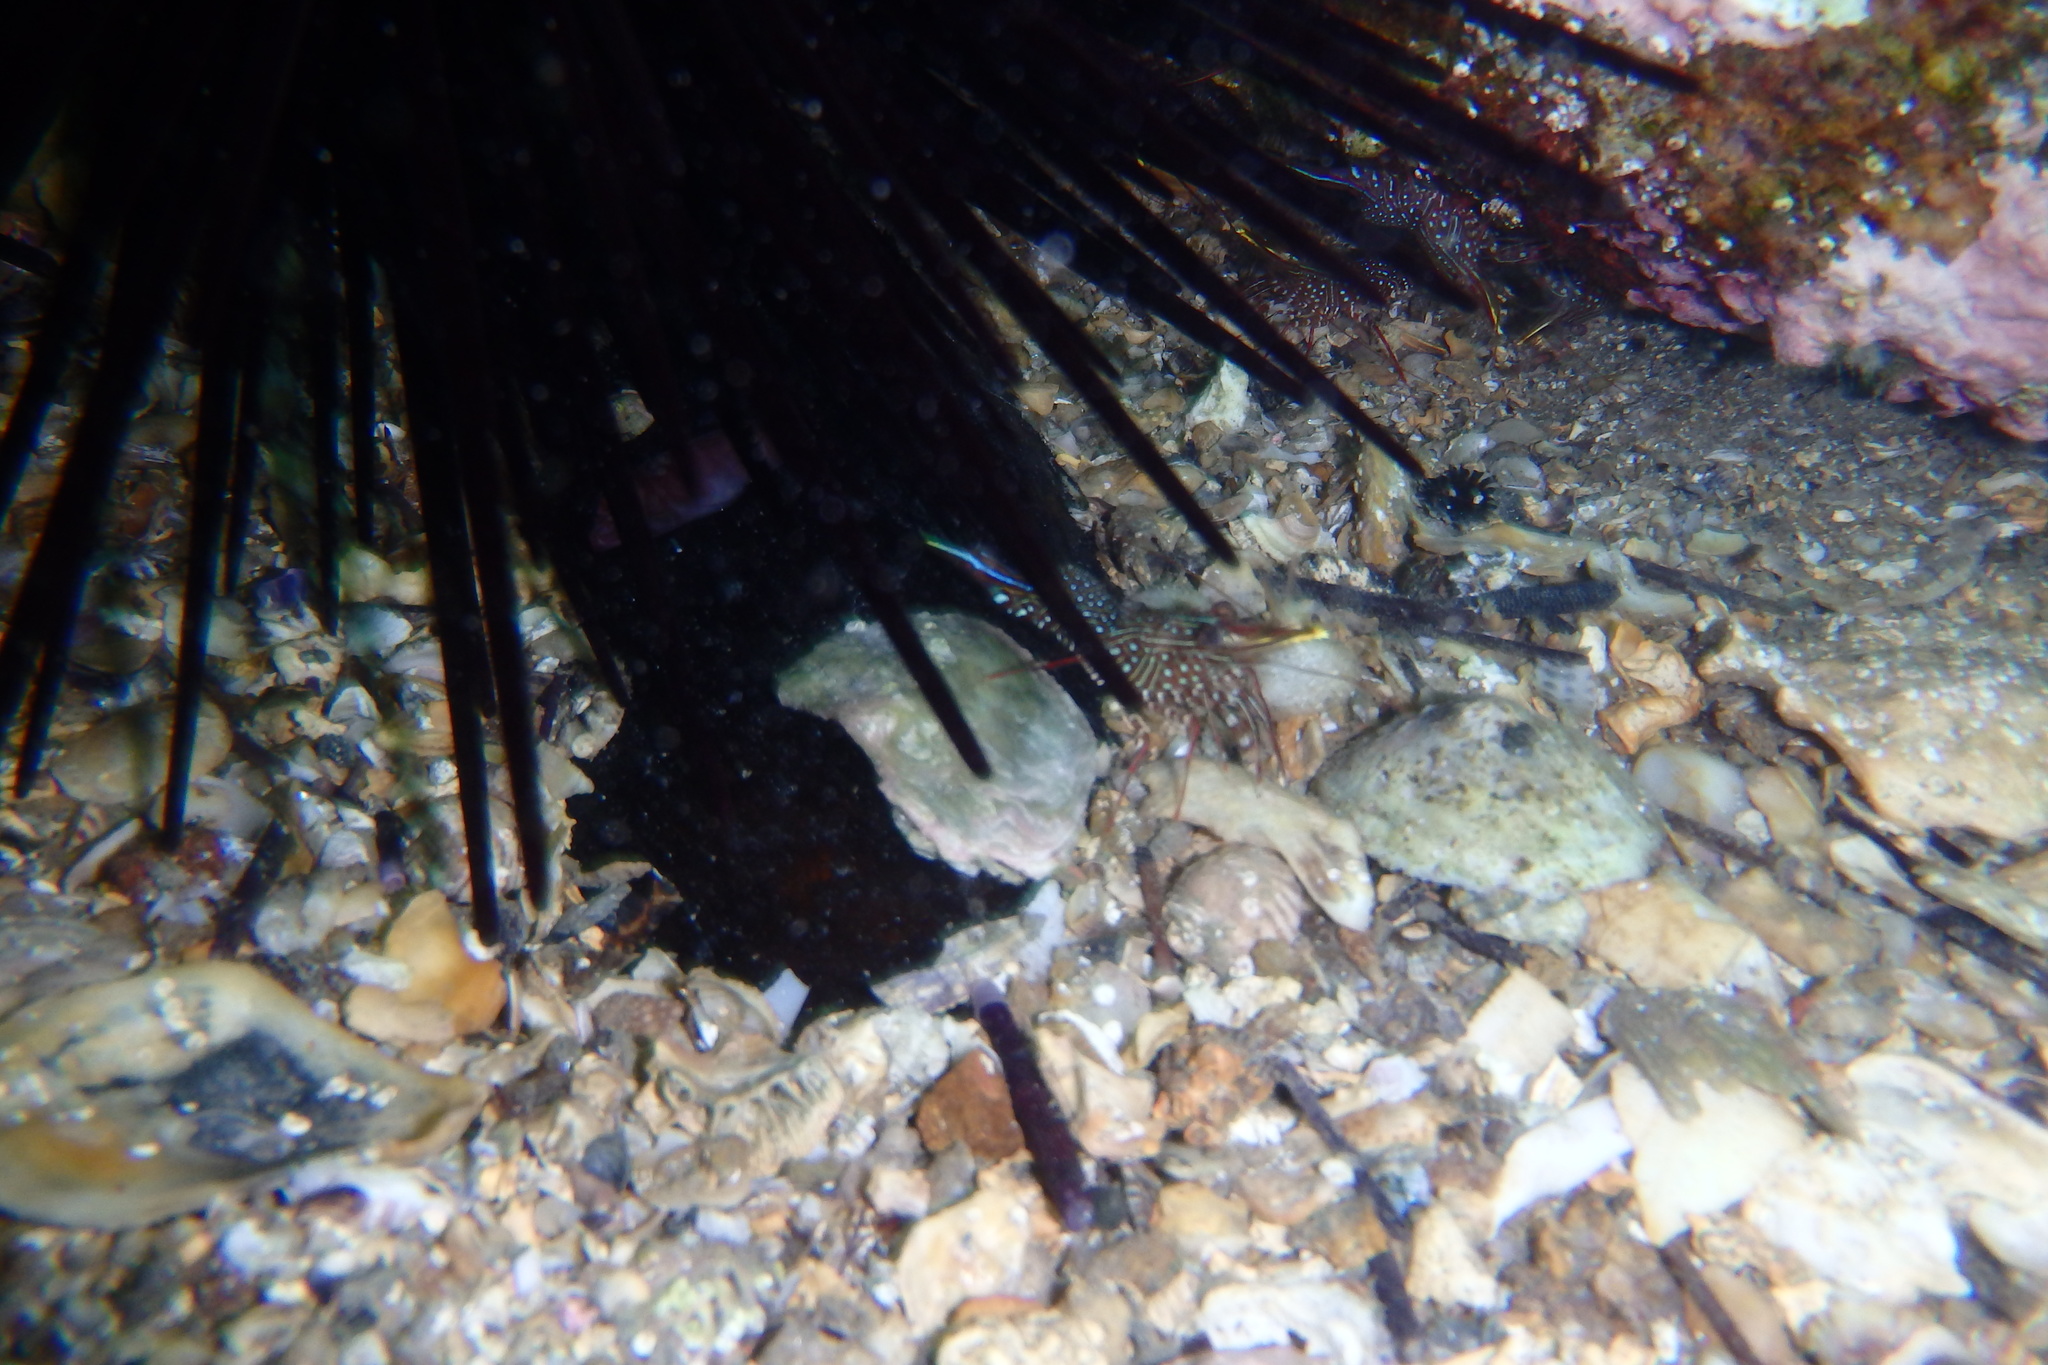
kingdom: Animalia
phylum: Arthropoda
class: Malacostraca
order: Decapoda
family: Rhynchocinetidae
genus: Rhynchocinetes
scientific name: Rhynchocinetes serratus
